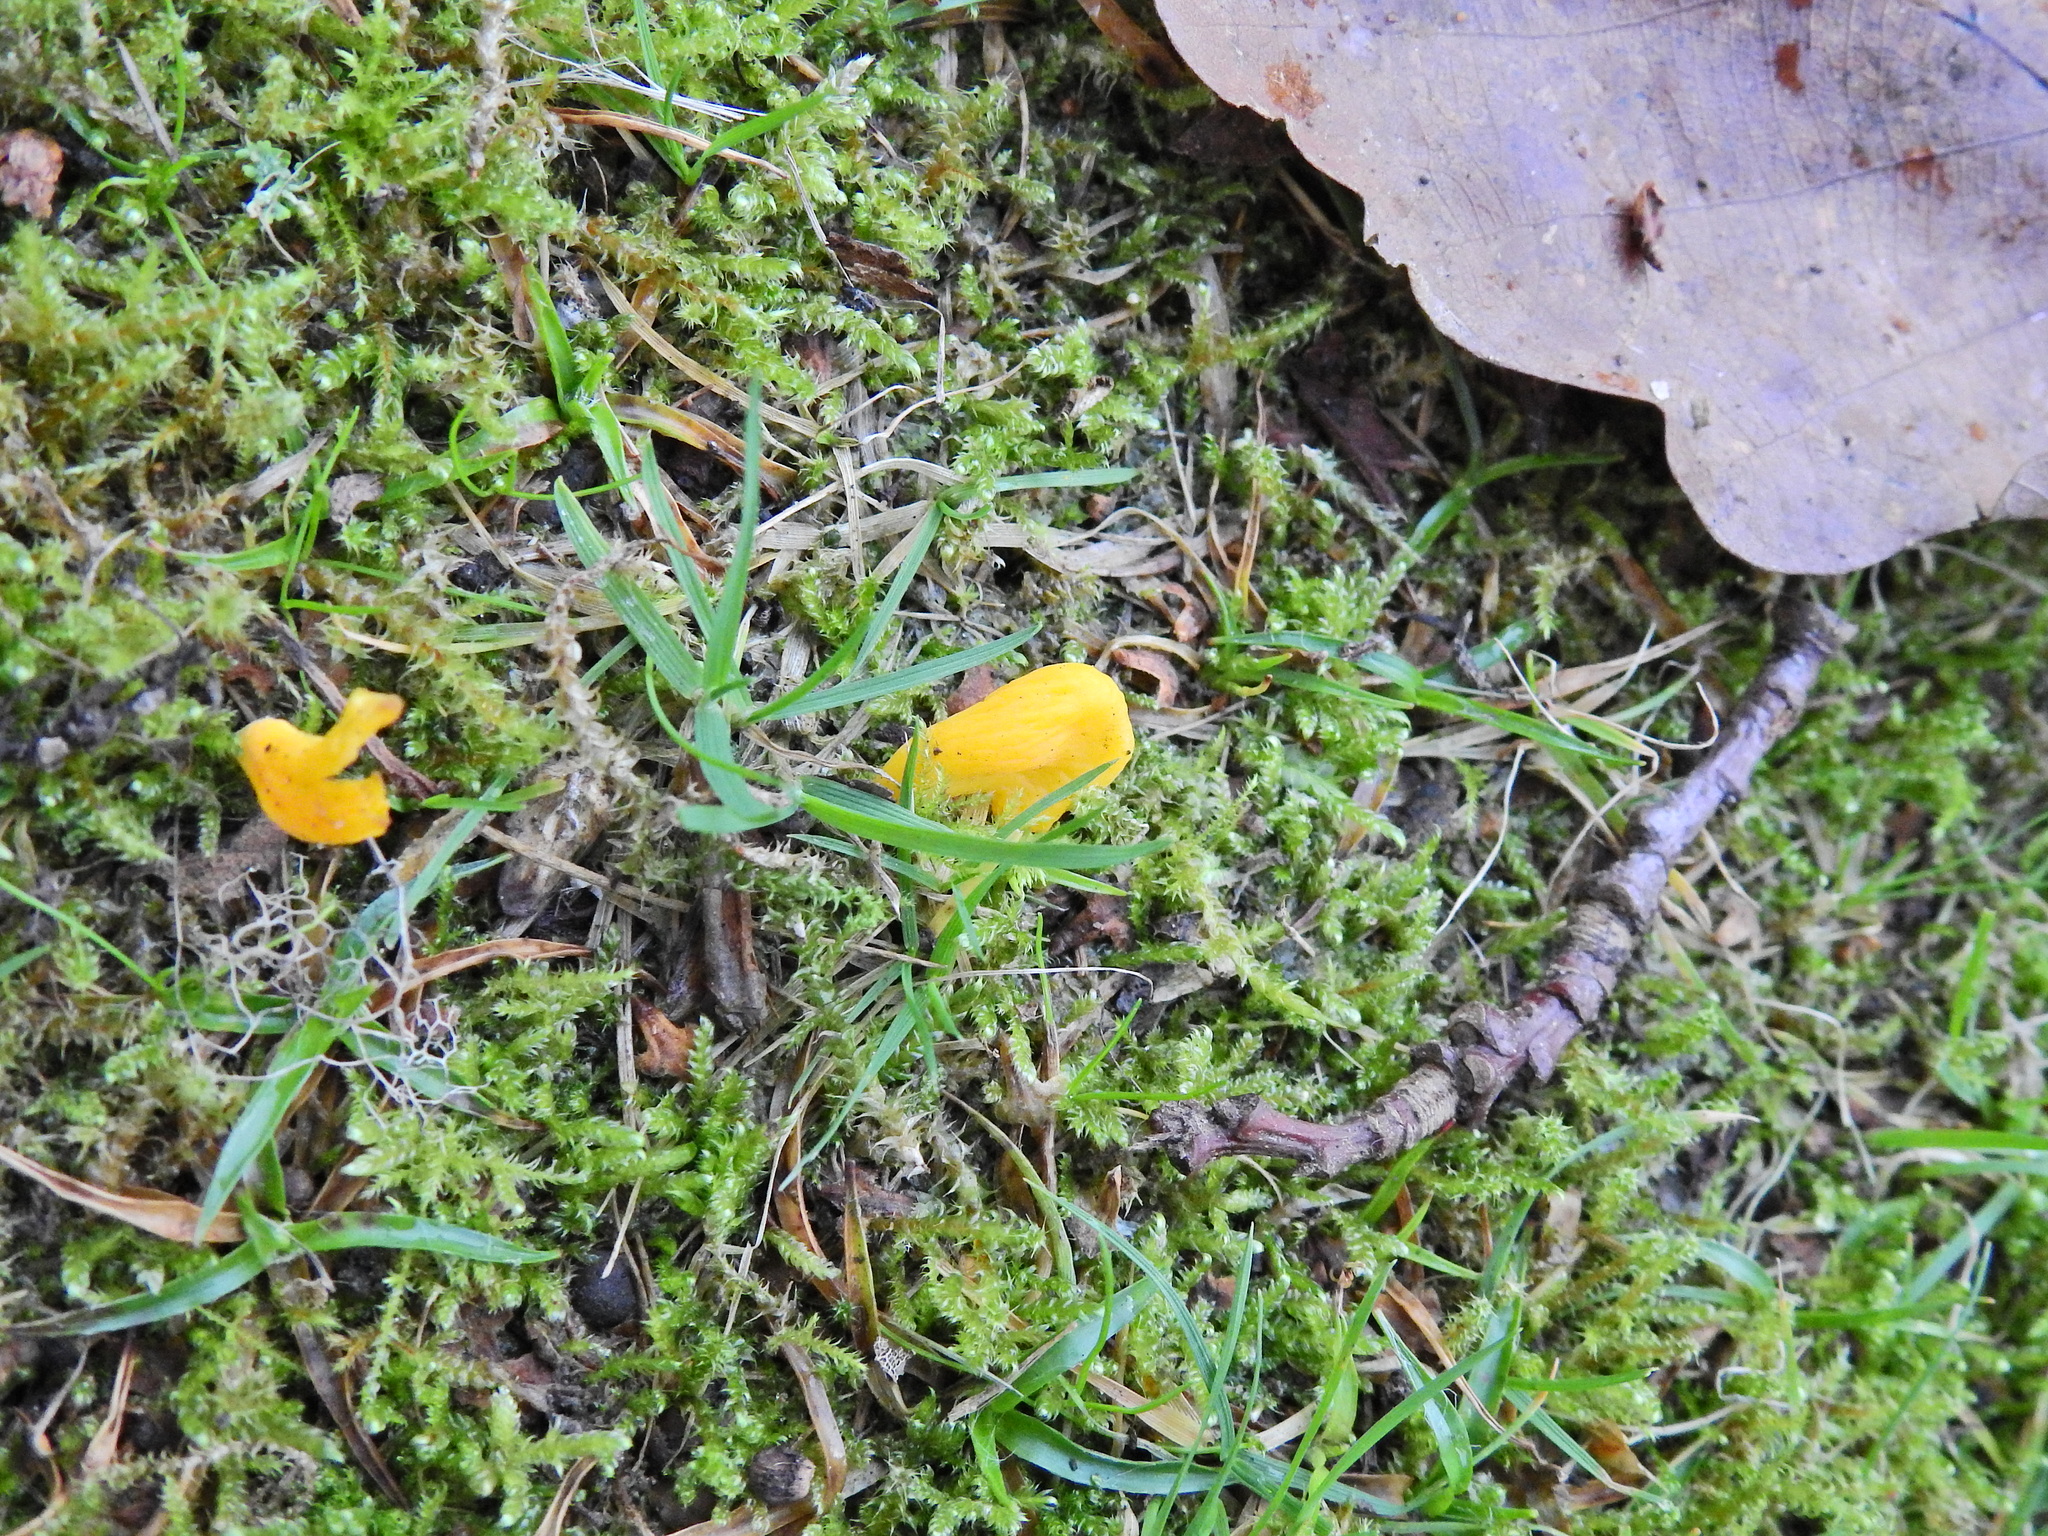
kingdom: Fungi
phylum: Basidiomycota
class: Agaricomycetes
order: Agaricales
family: Clavariaceae
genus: Clavulinopsis
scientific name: Clavulinopsis helvola
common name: Yellow club
